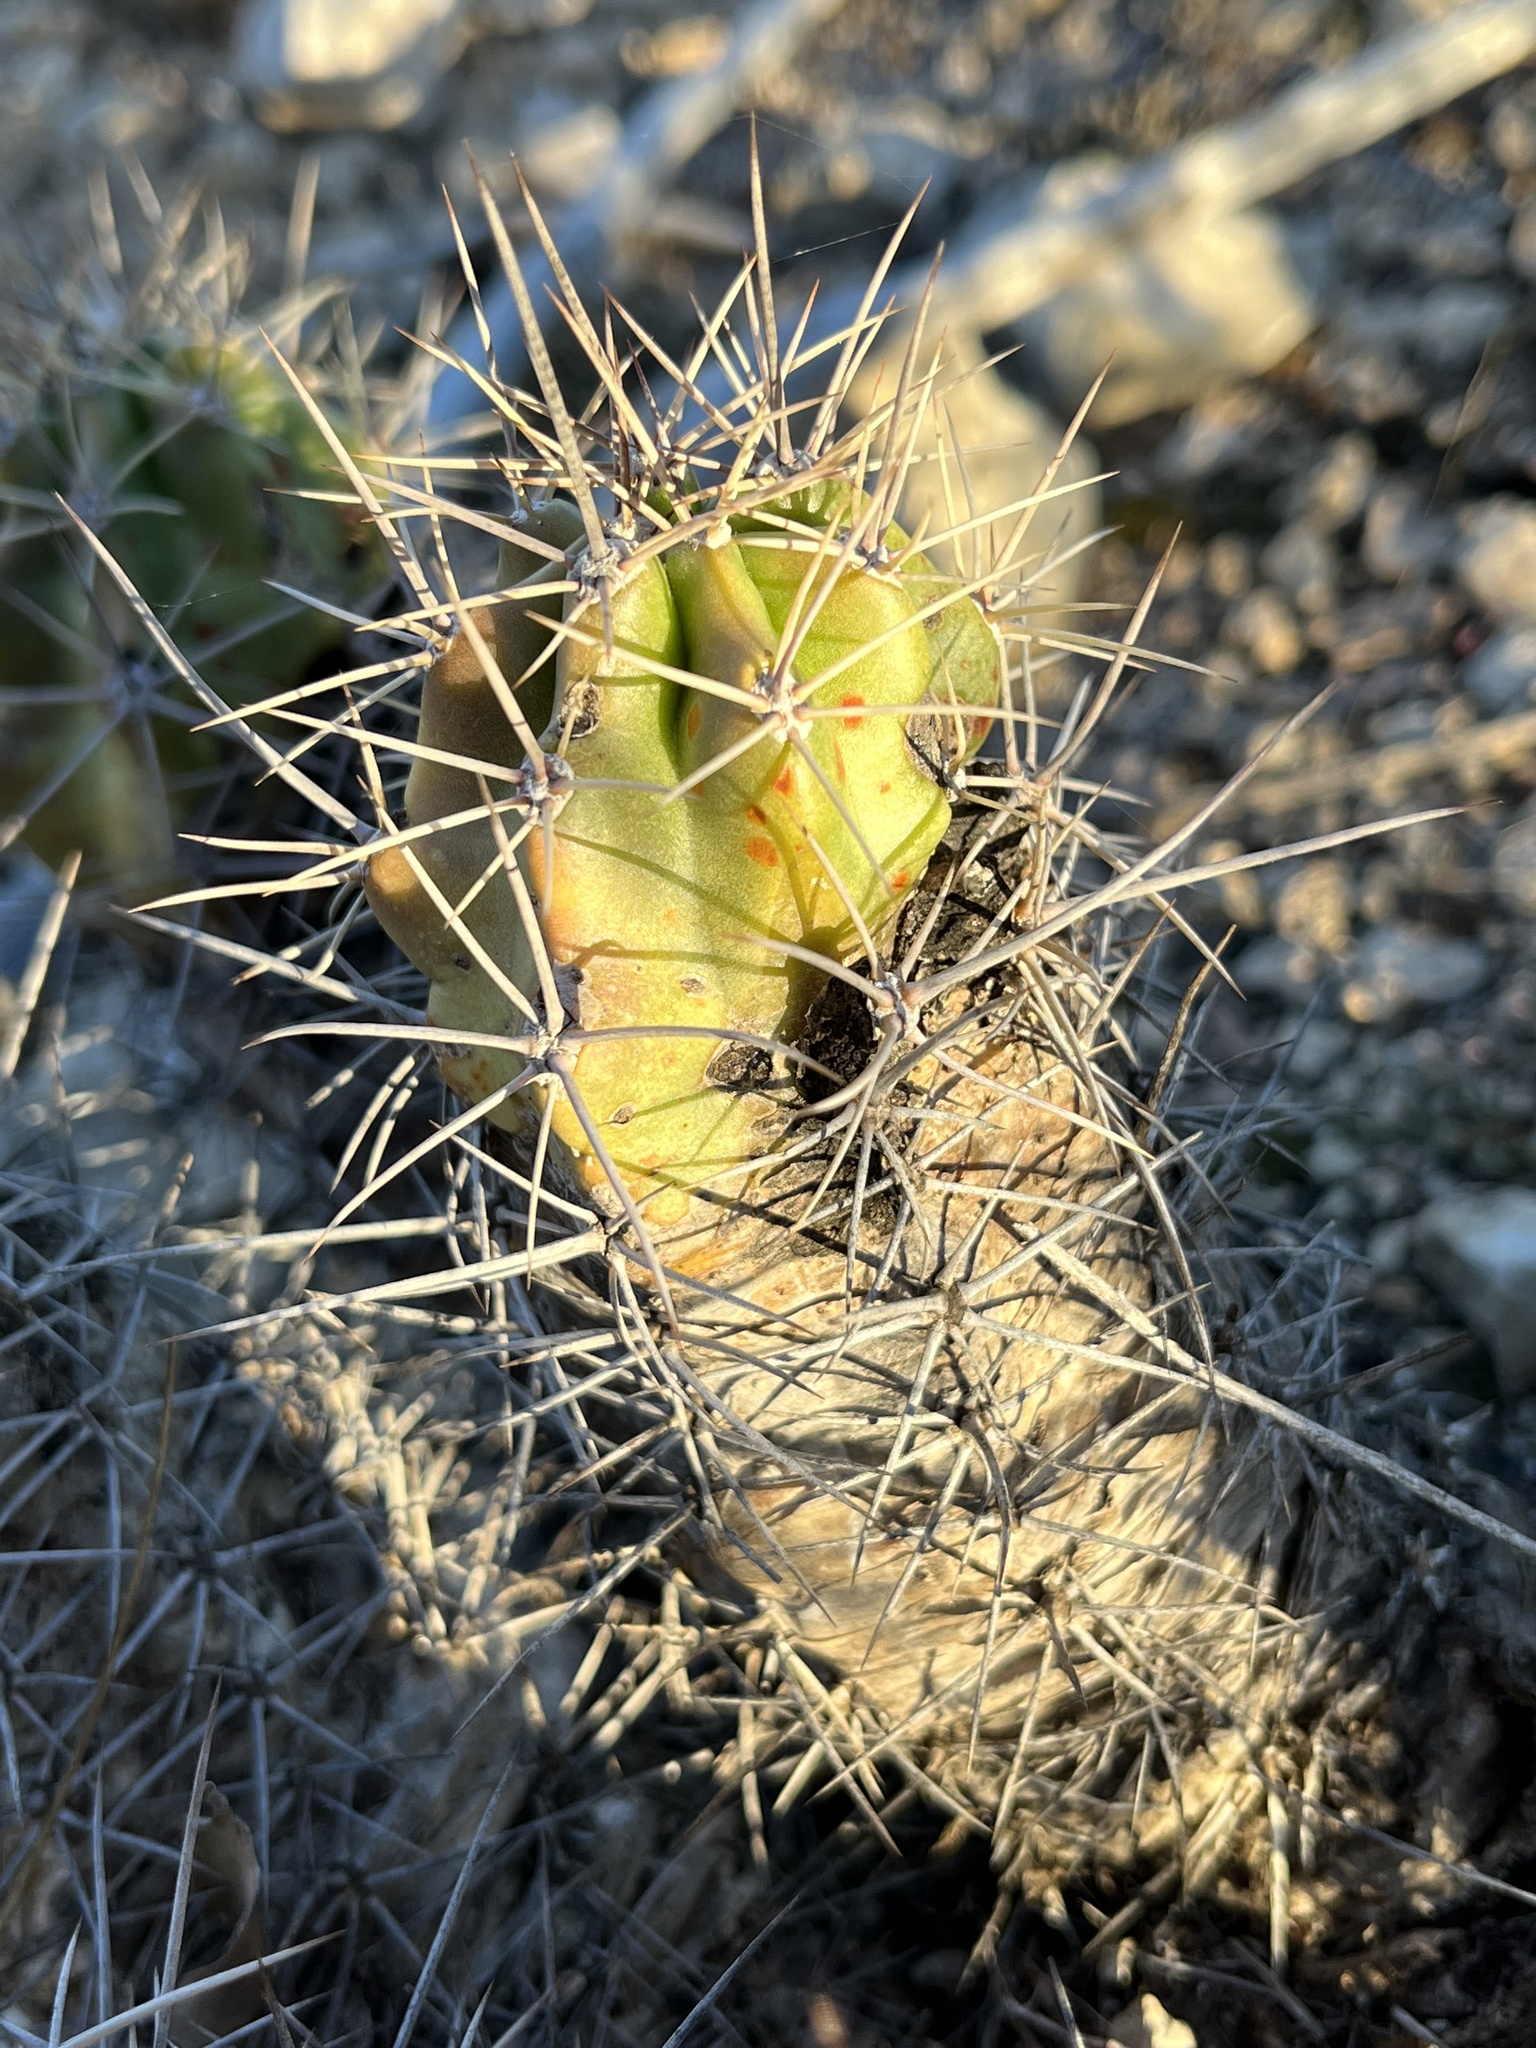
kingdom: Plantae
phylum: Tracheophyta
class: Magnoliopsida
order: Caryophyllales
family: Cactaceae
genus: Echinocereus
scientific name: Echinocereus coccineus
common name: Scarlet hedgehog cactus
